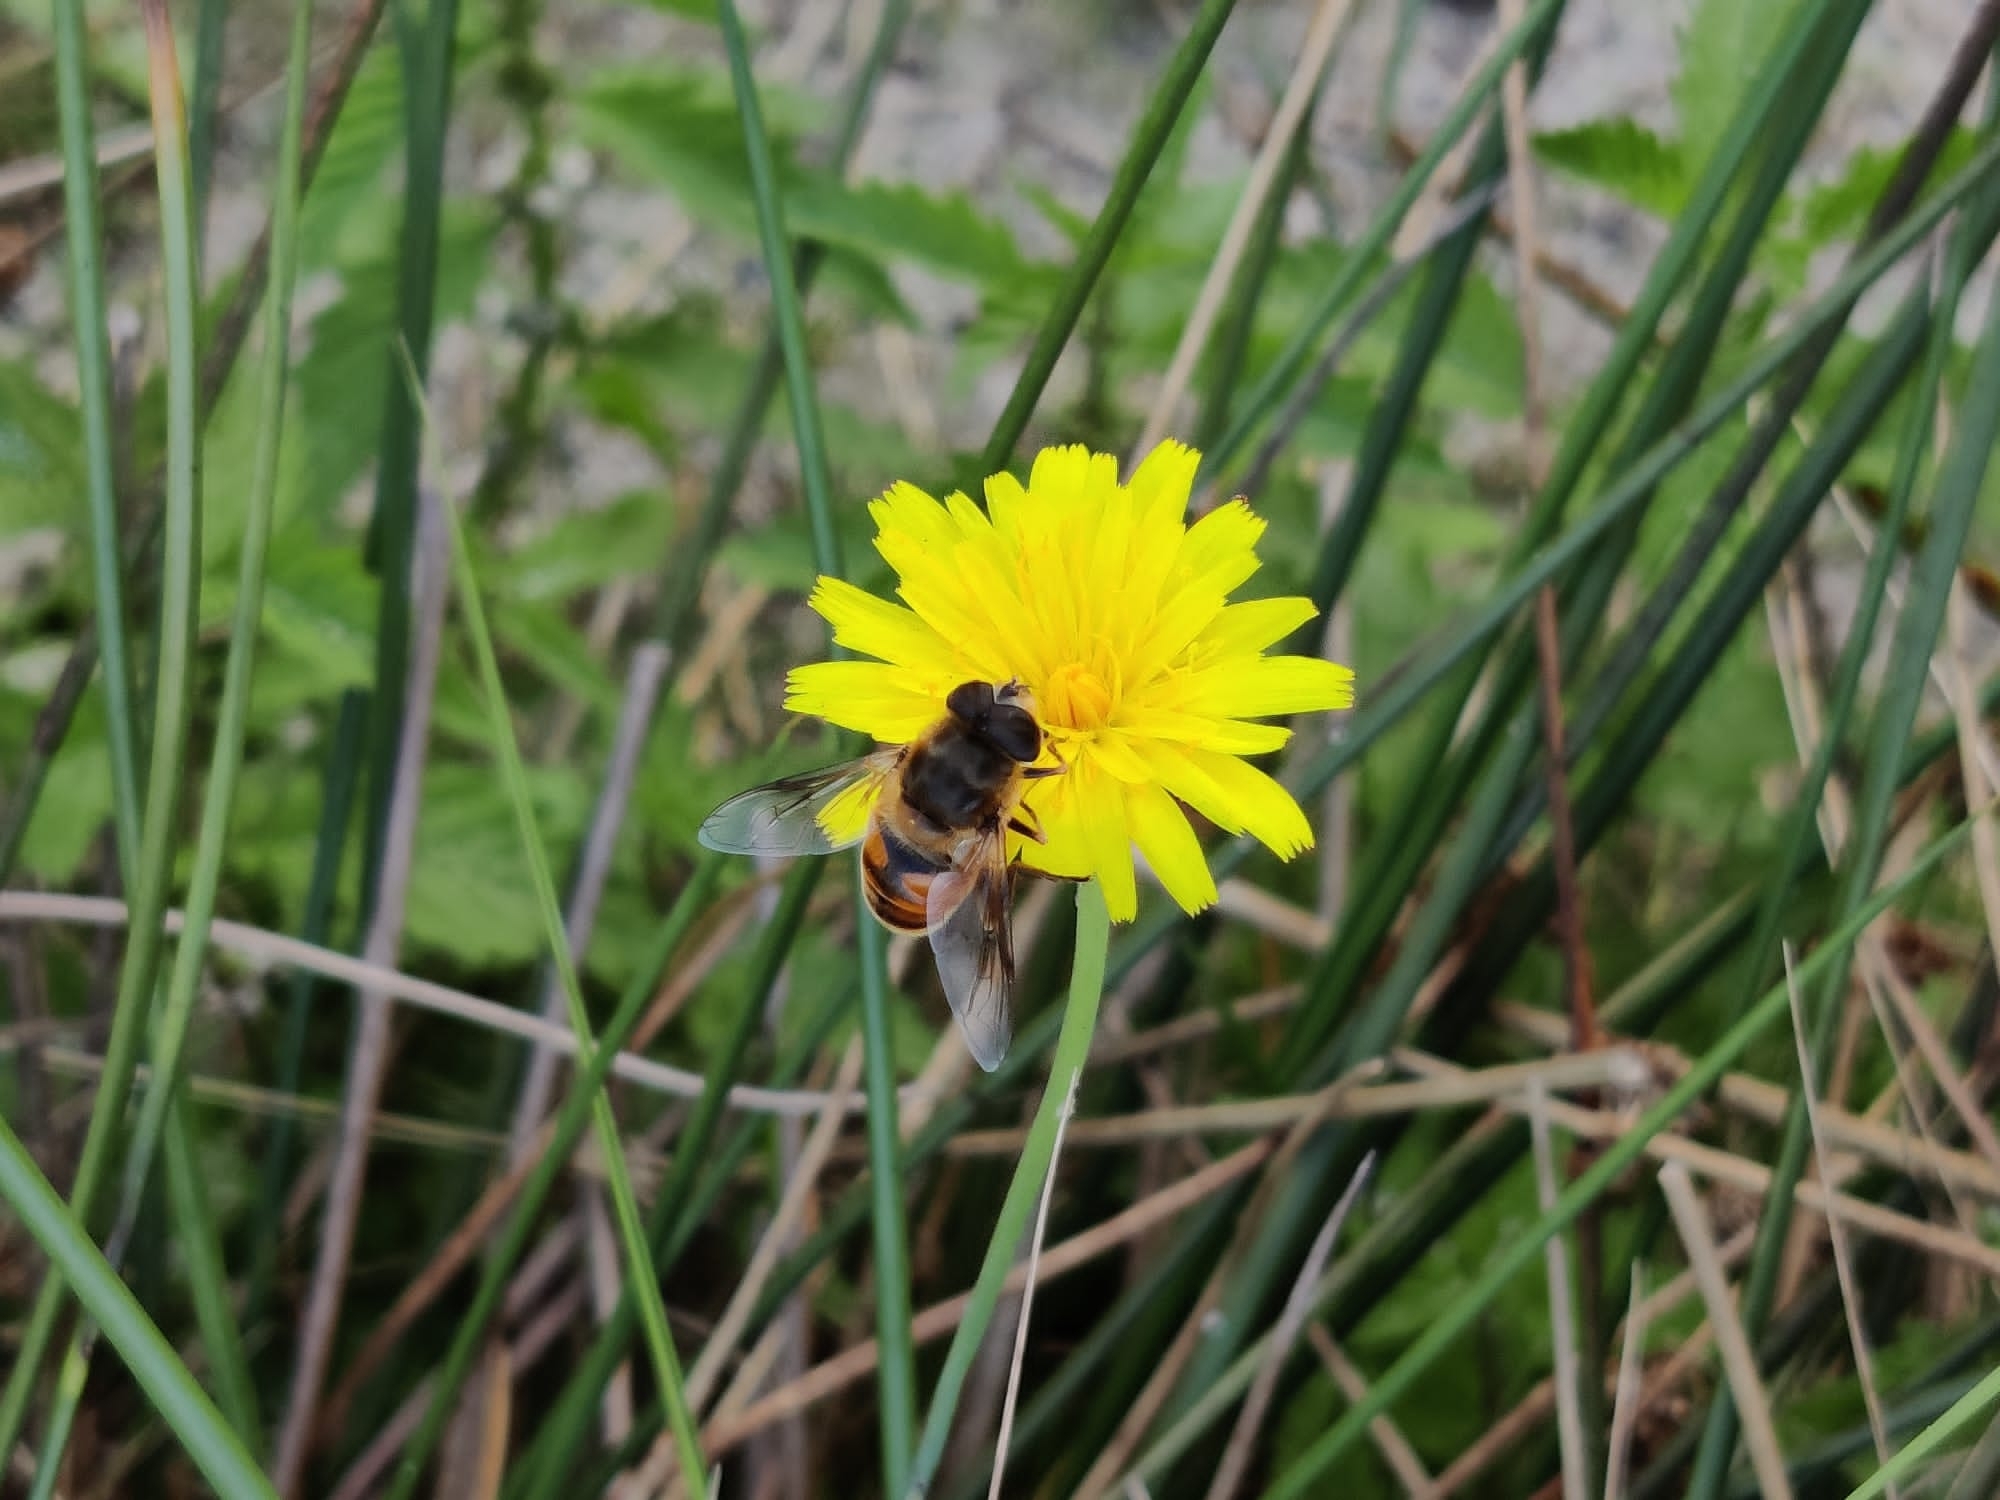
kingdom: Animalia
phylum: Arthropoda
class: Insecta
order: Diptera
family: Syrphidae
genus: Eristalis
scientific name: Eristalis tenax
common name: Drone fly
